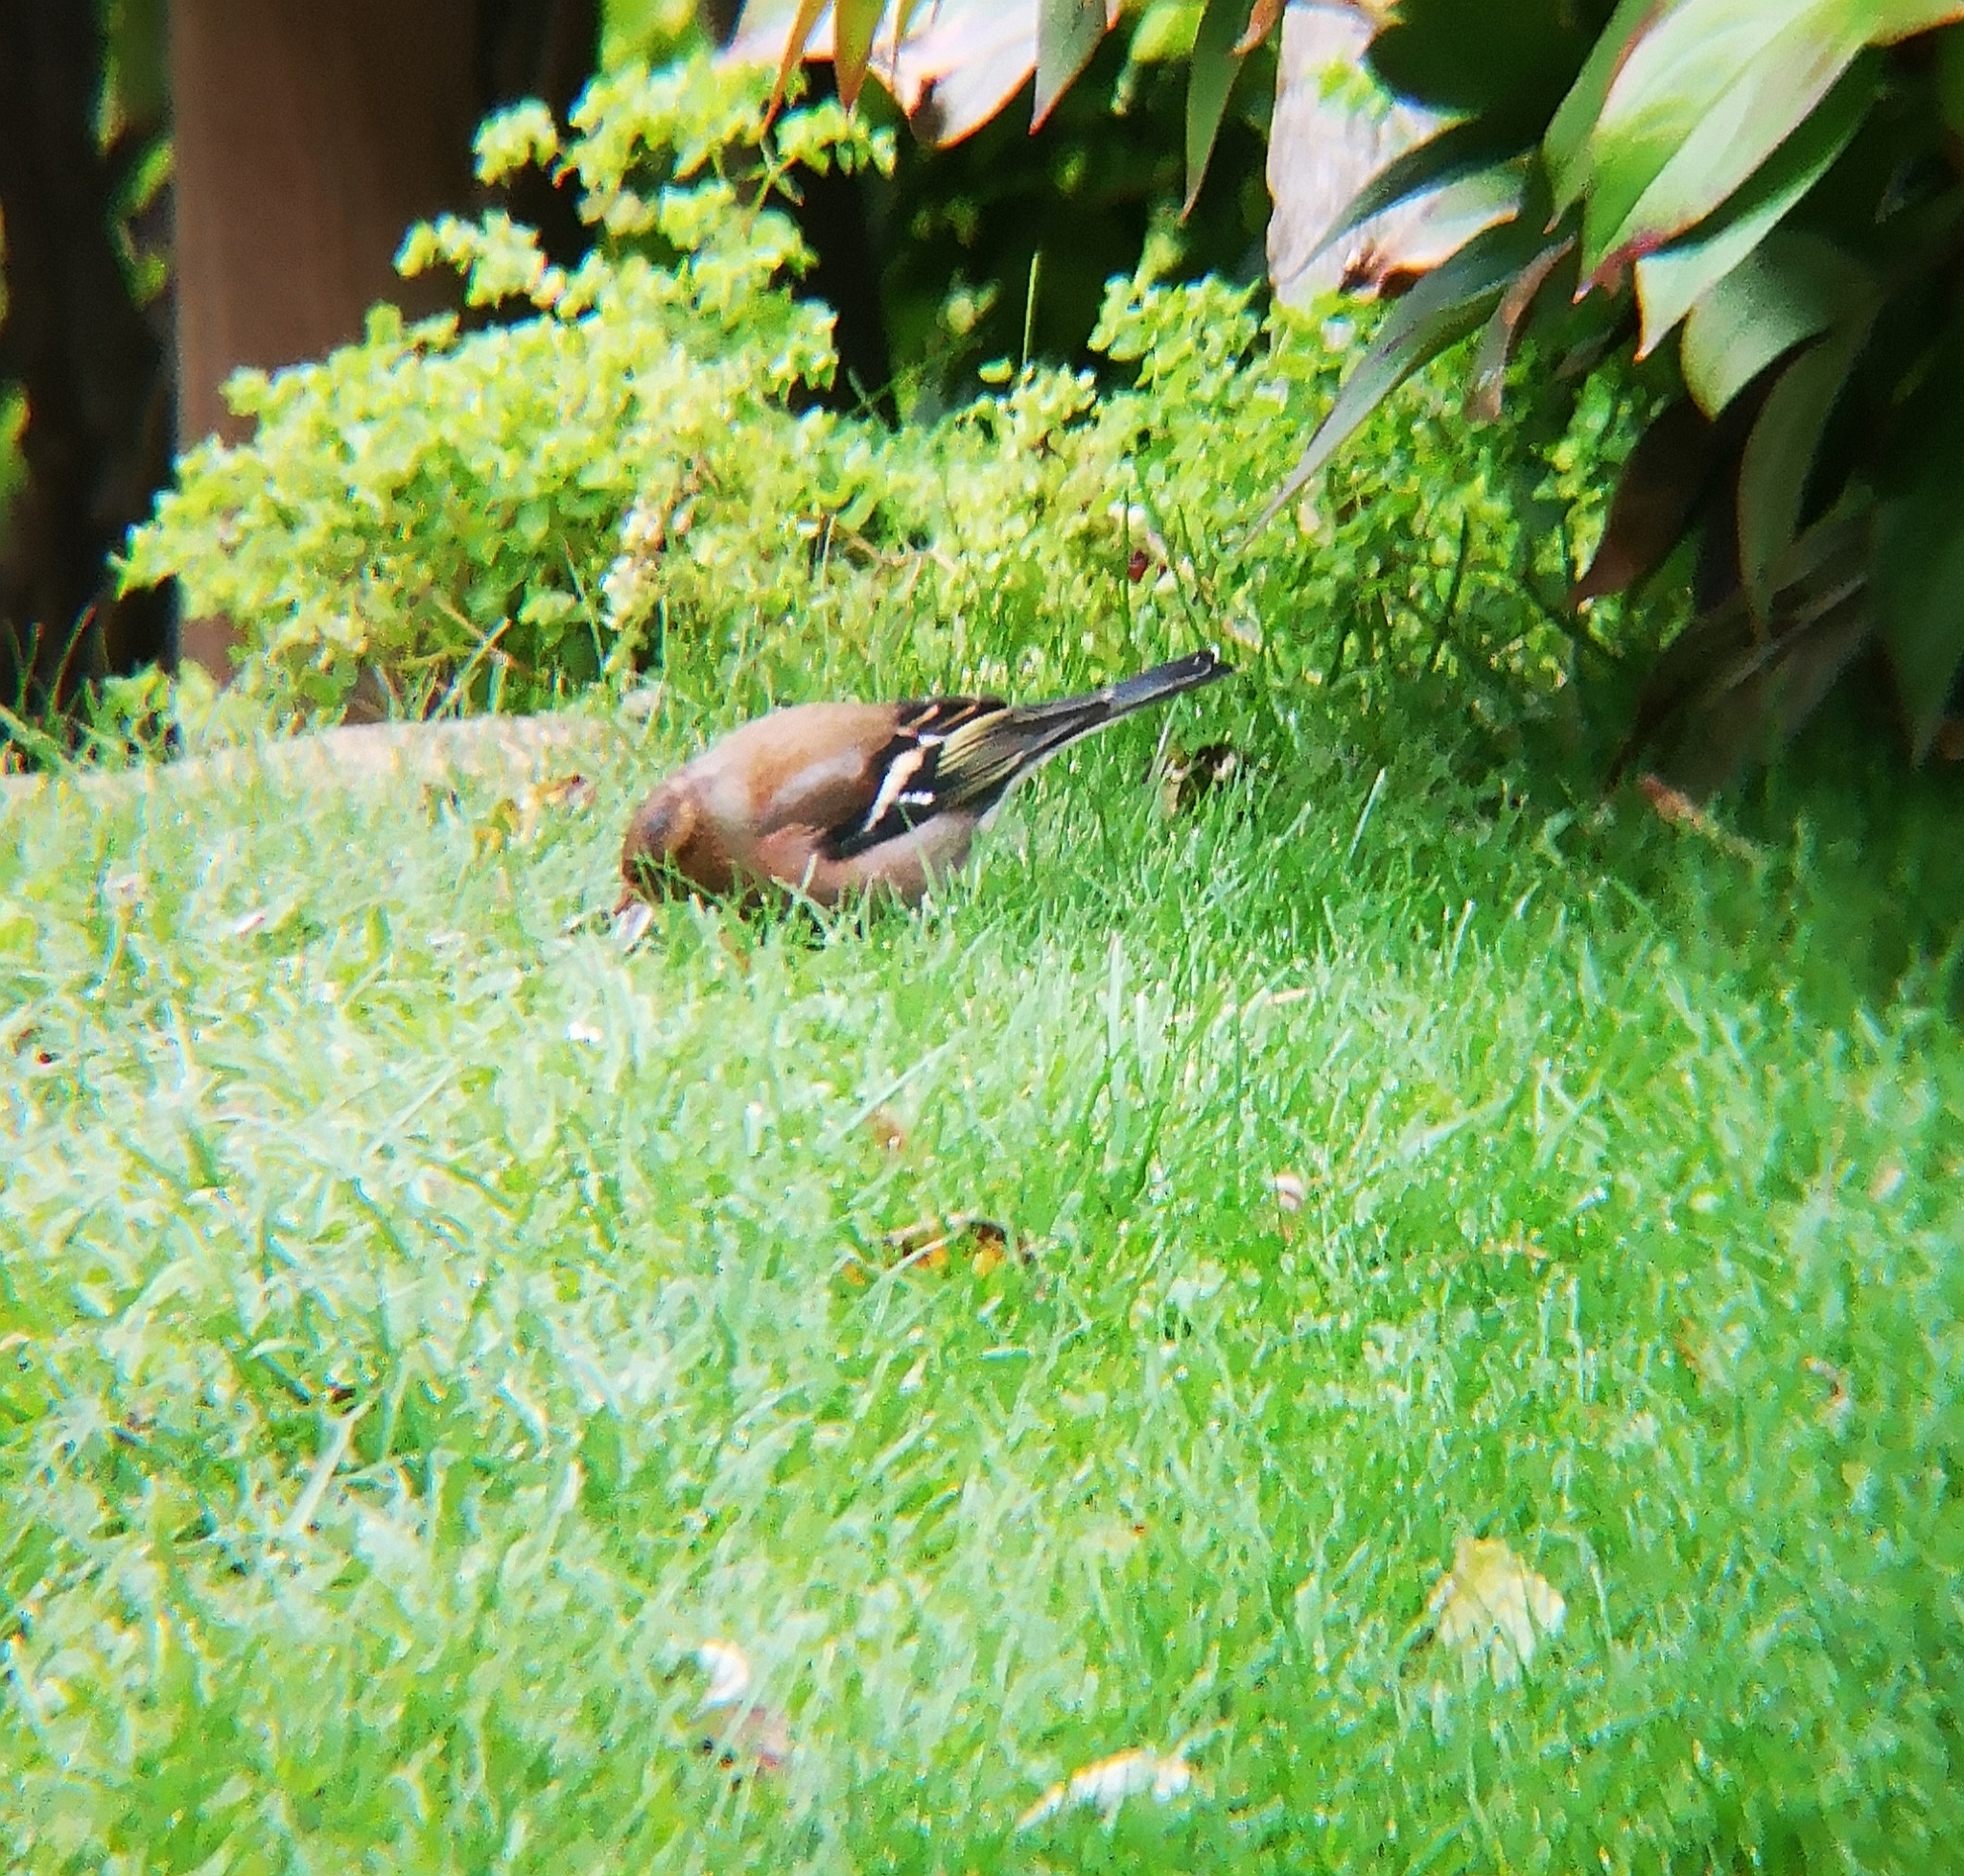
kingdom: Animalia
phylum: Chordata
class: Aves
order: Passeriformes
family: Fringillidae
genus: Fringilla
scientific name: Fringilla coelebs
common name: Common chaffinch
